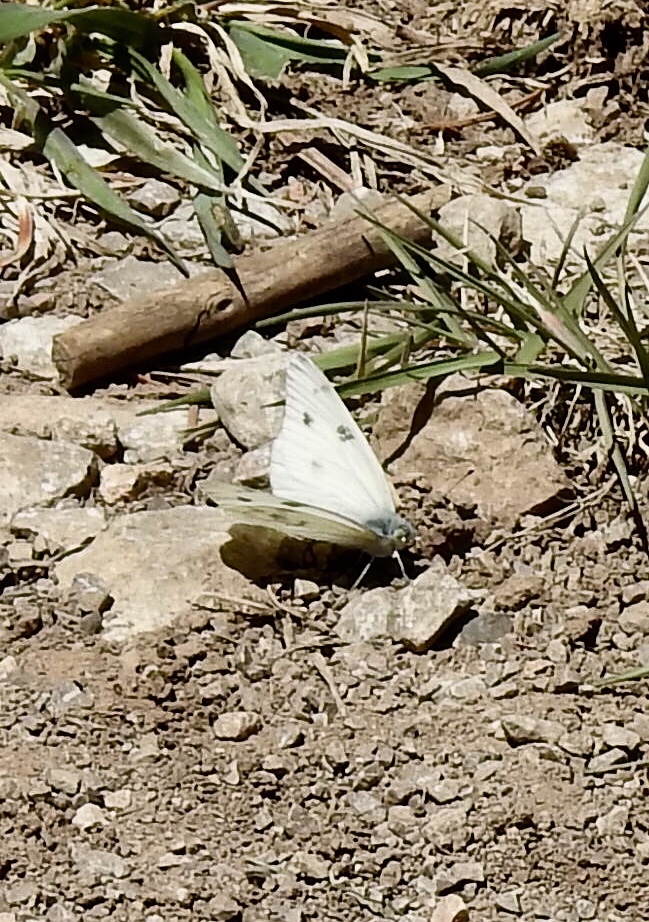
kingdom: Animalia
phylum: Arthropoda
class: Insecta
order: Lepidoptera
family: Pieridae
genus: Pontia
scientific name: Pontia protodice
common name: Checkered white
